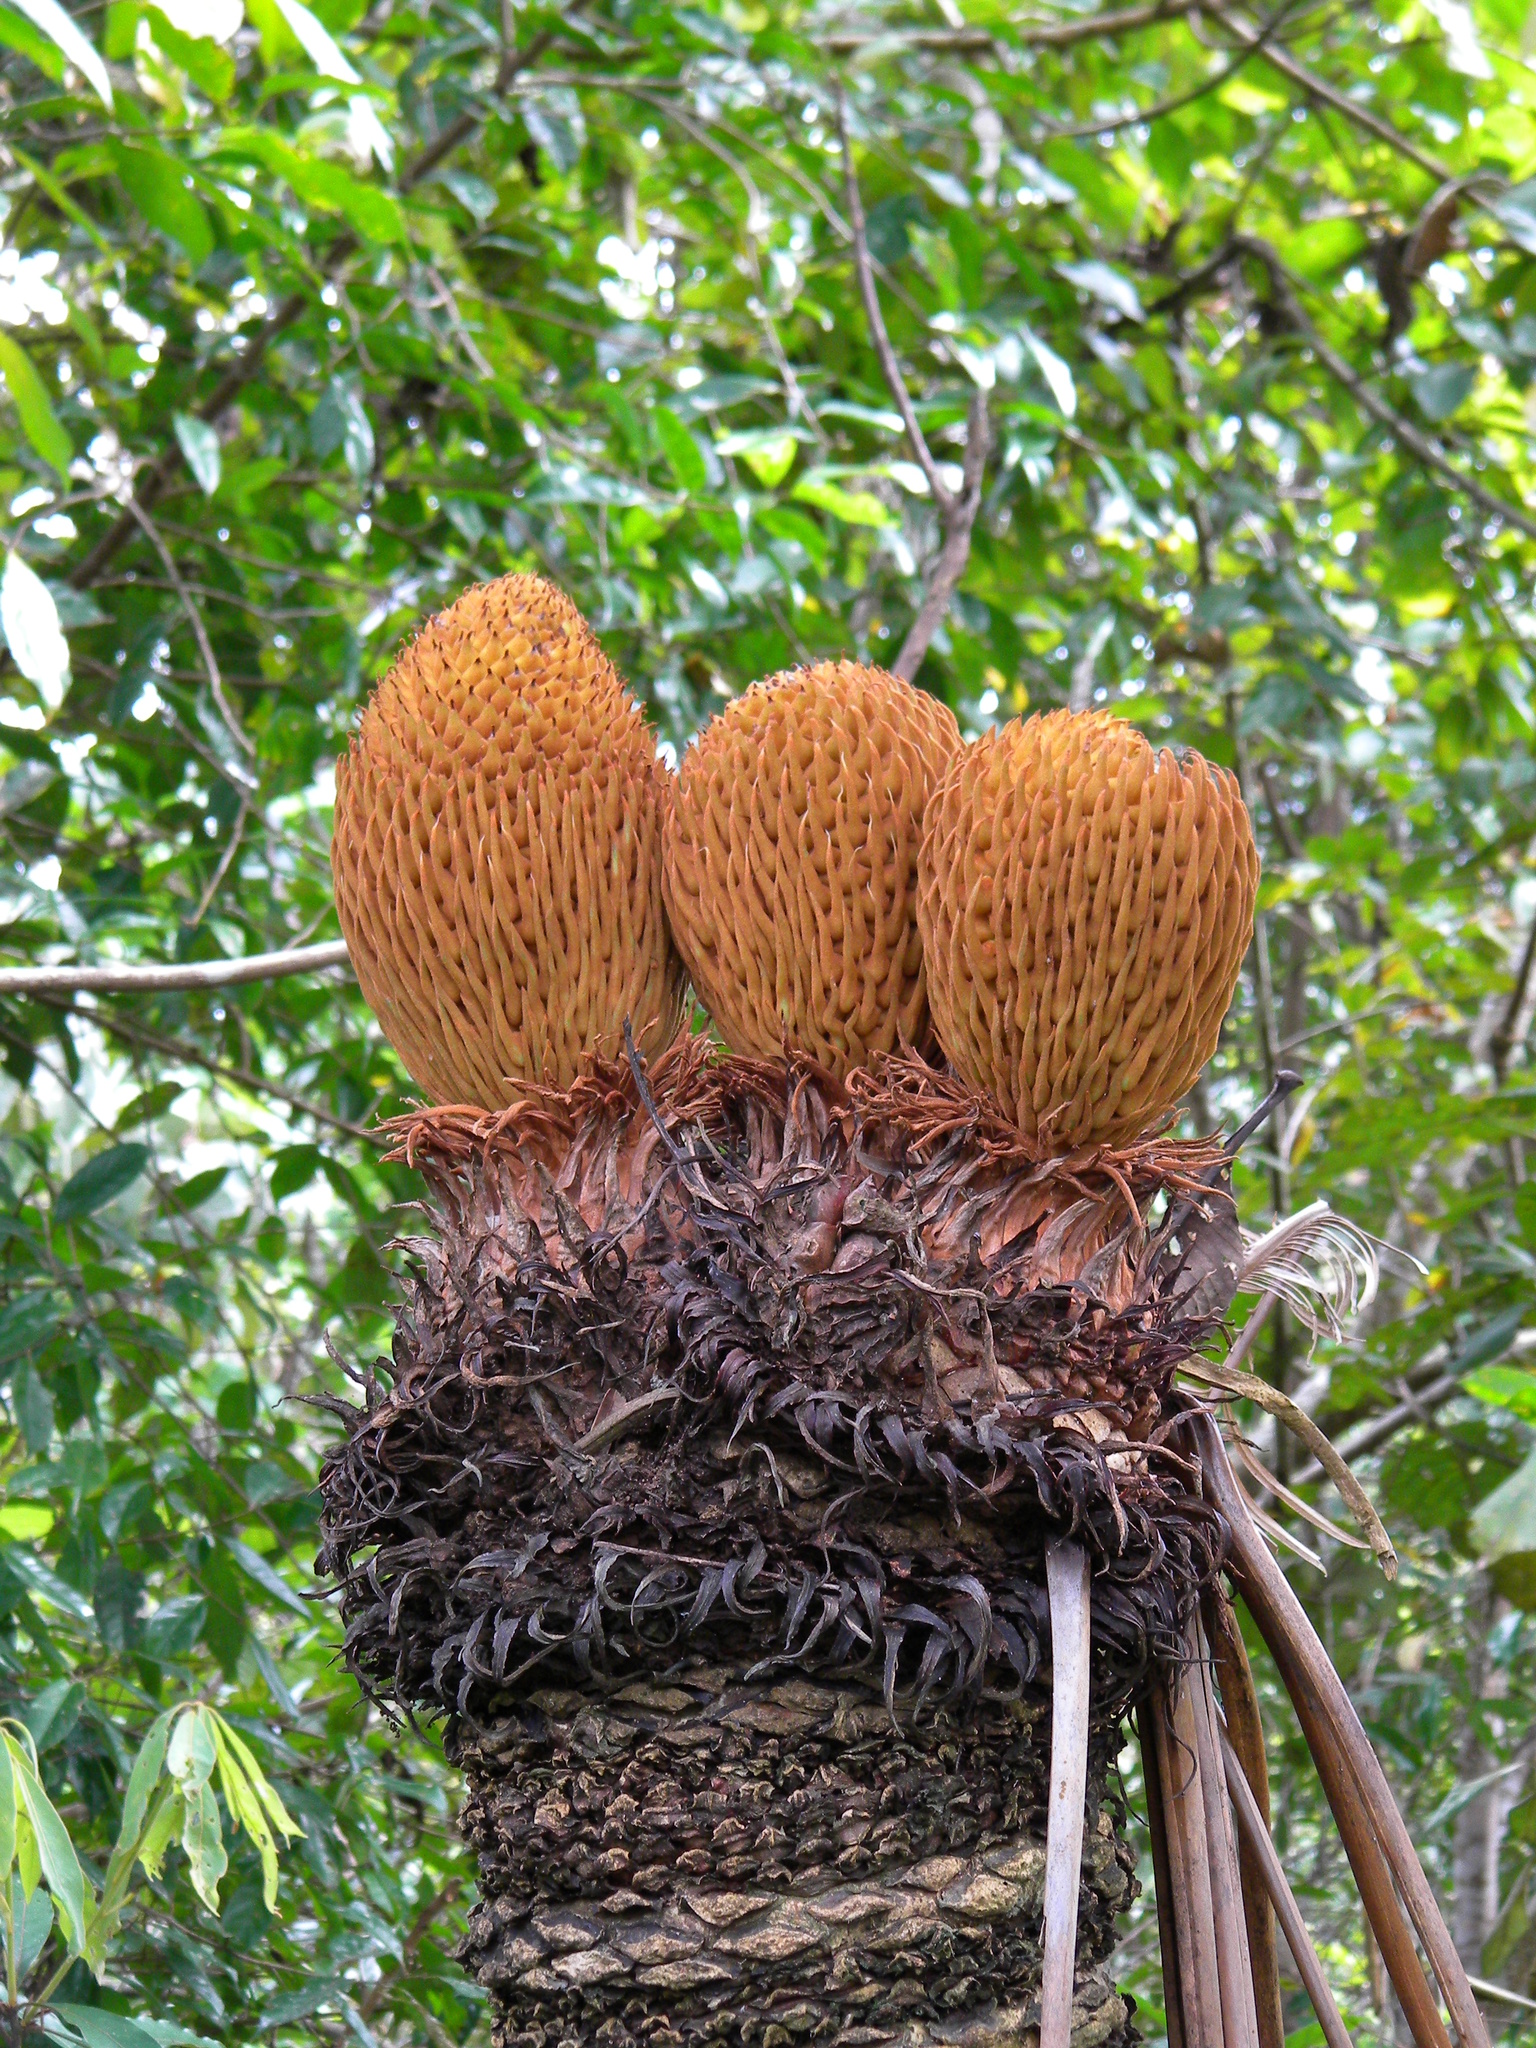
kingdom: Plantae
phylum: Tracheophyta
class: Cycadopsida
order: Cycadales
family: Cycadaceae
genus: Cycas
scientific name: Cycas circinalis
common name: Queen sago
